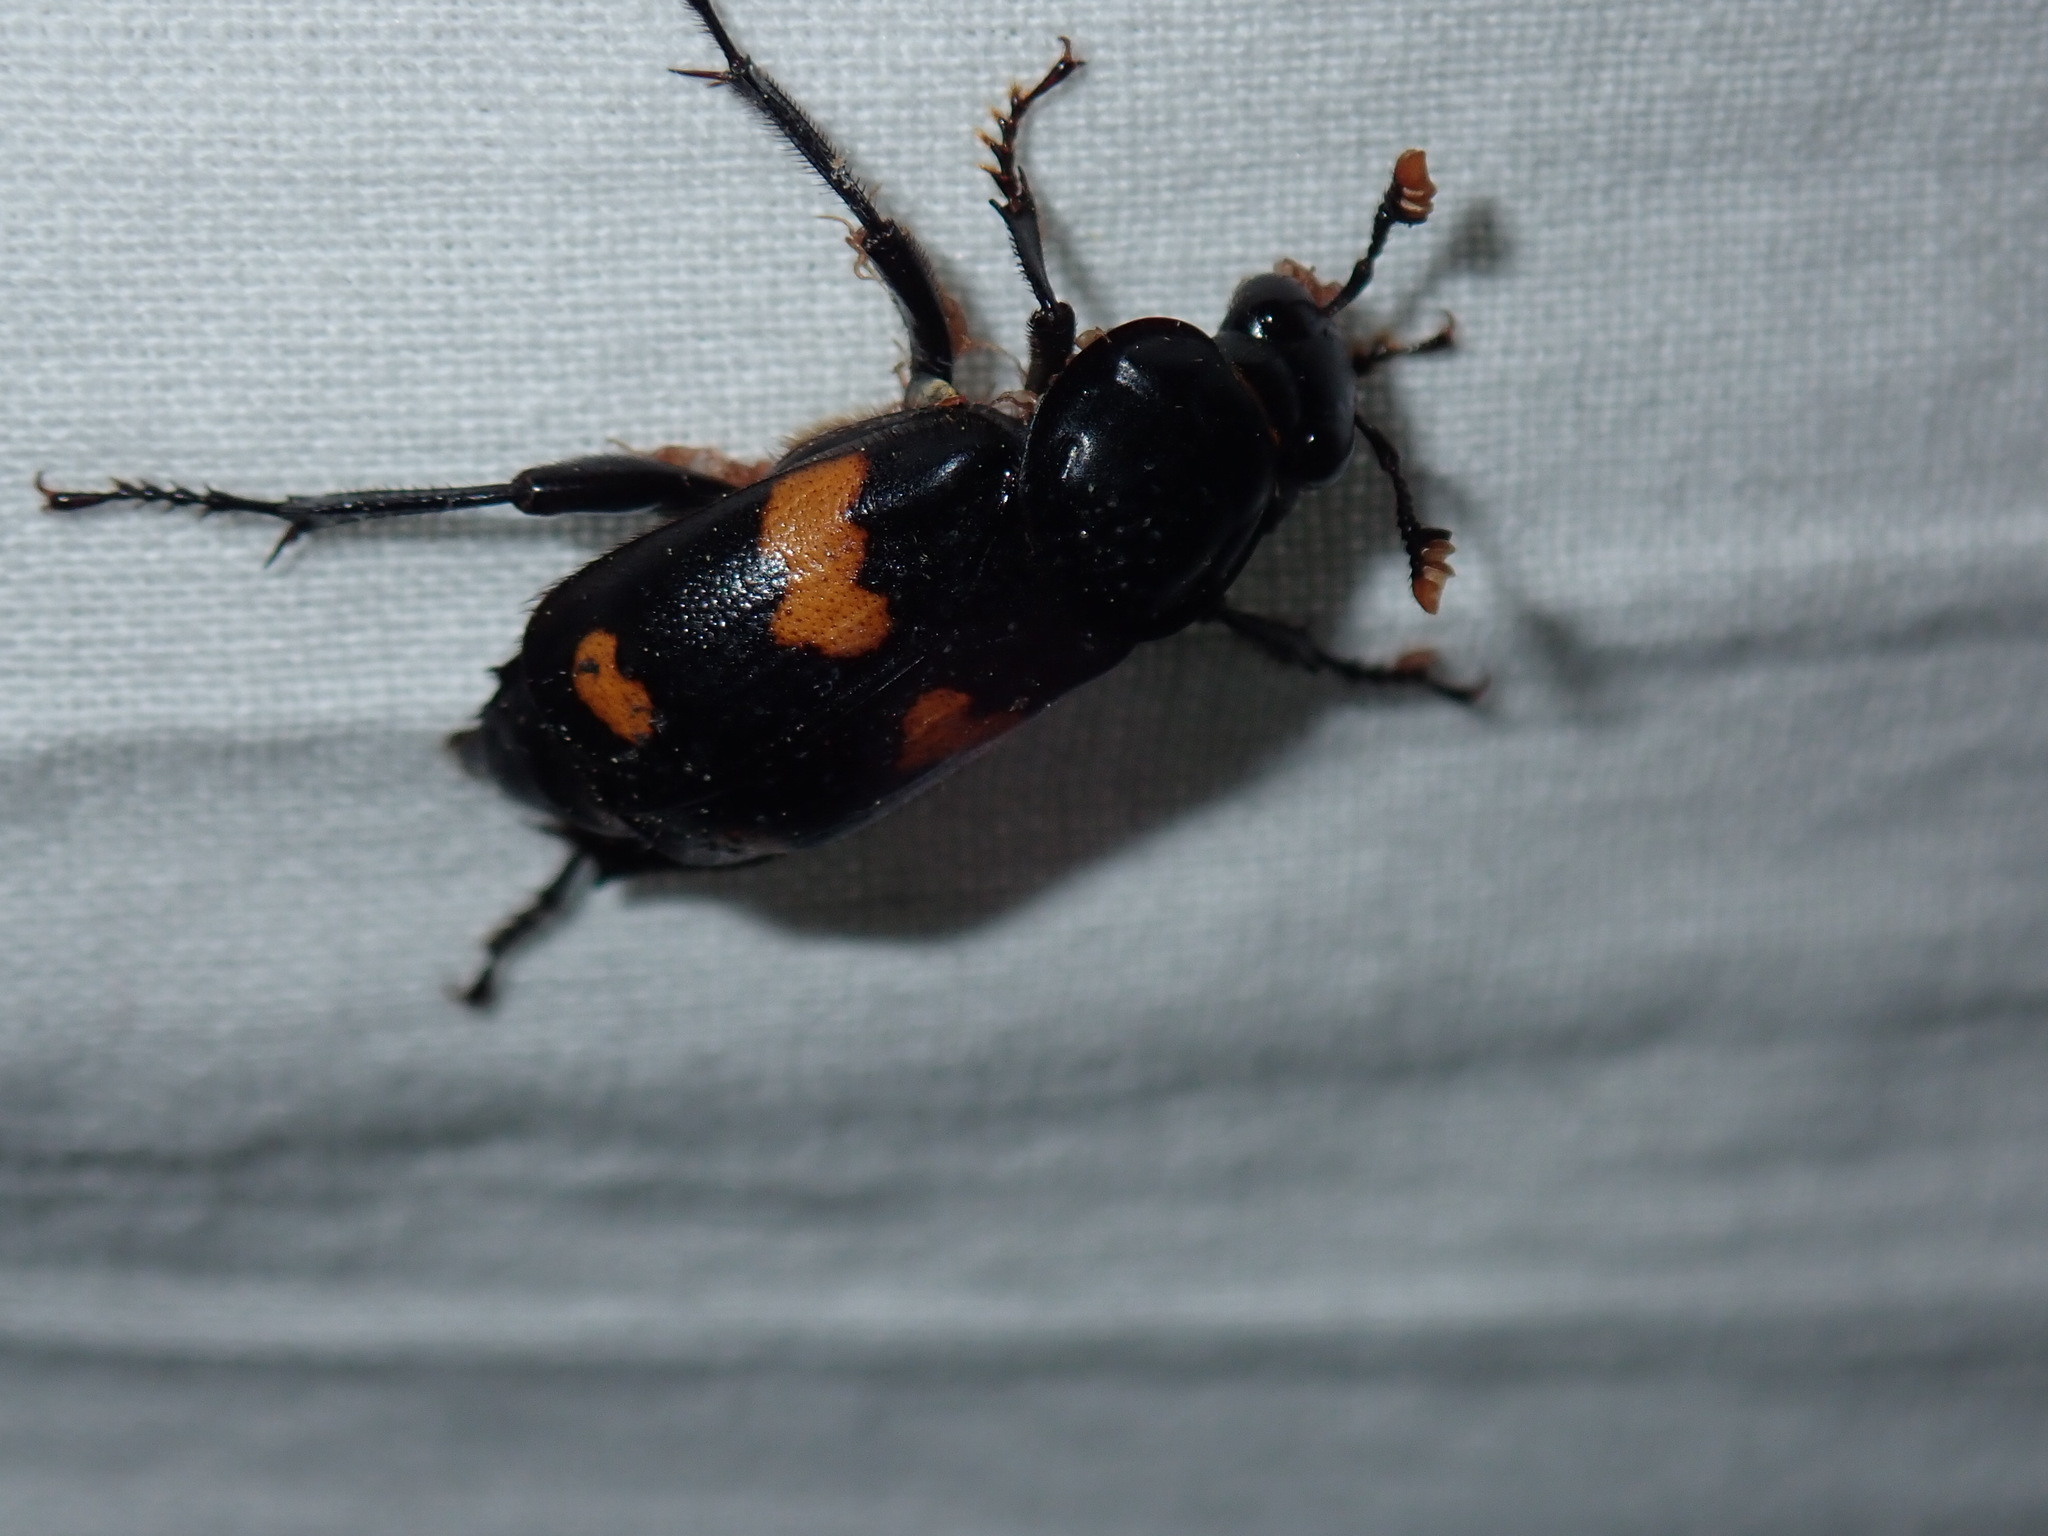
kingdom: Animalia
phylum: Arthropoda
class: Insecta
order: Coleoptera
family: Staphylinidae
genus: Nicrophorus
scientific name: Nicrophorus orbicollis
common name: Roundneck sexton beetle
